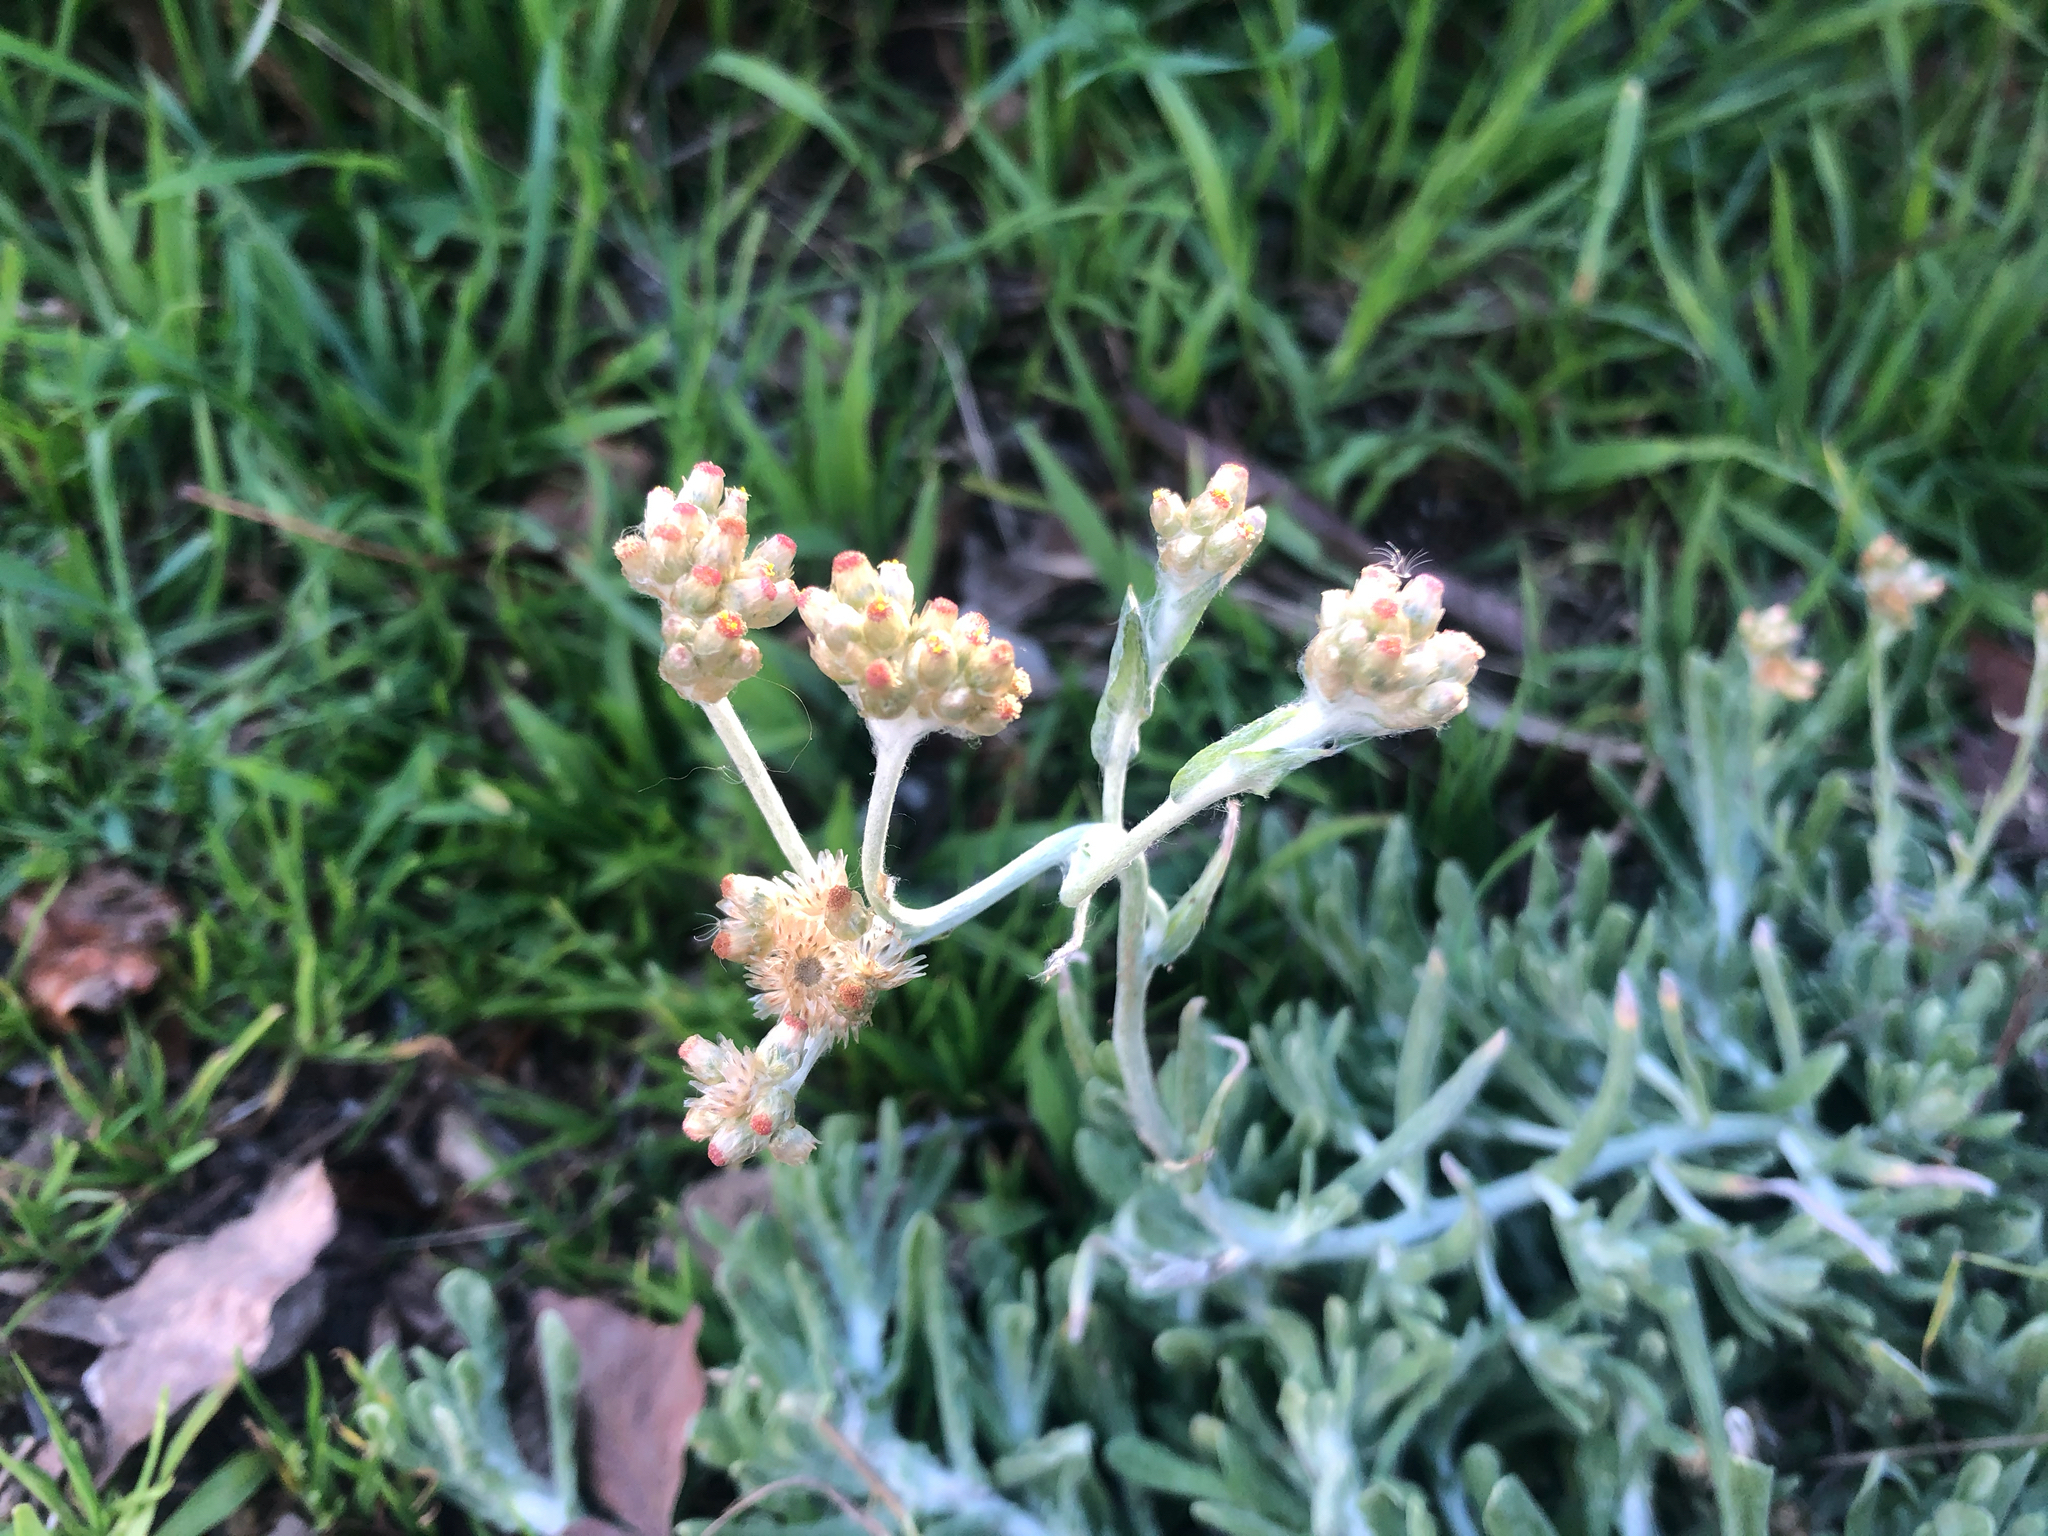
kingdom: Plantae
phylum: Tracheophyta
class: Magnoliopsida
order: Asterales
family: Asteraceae
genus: Helichrysum
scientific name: Helichrysum luteoalbum
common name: Daisy
